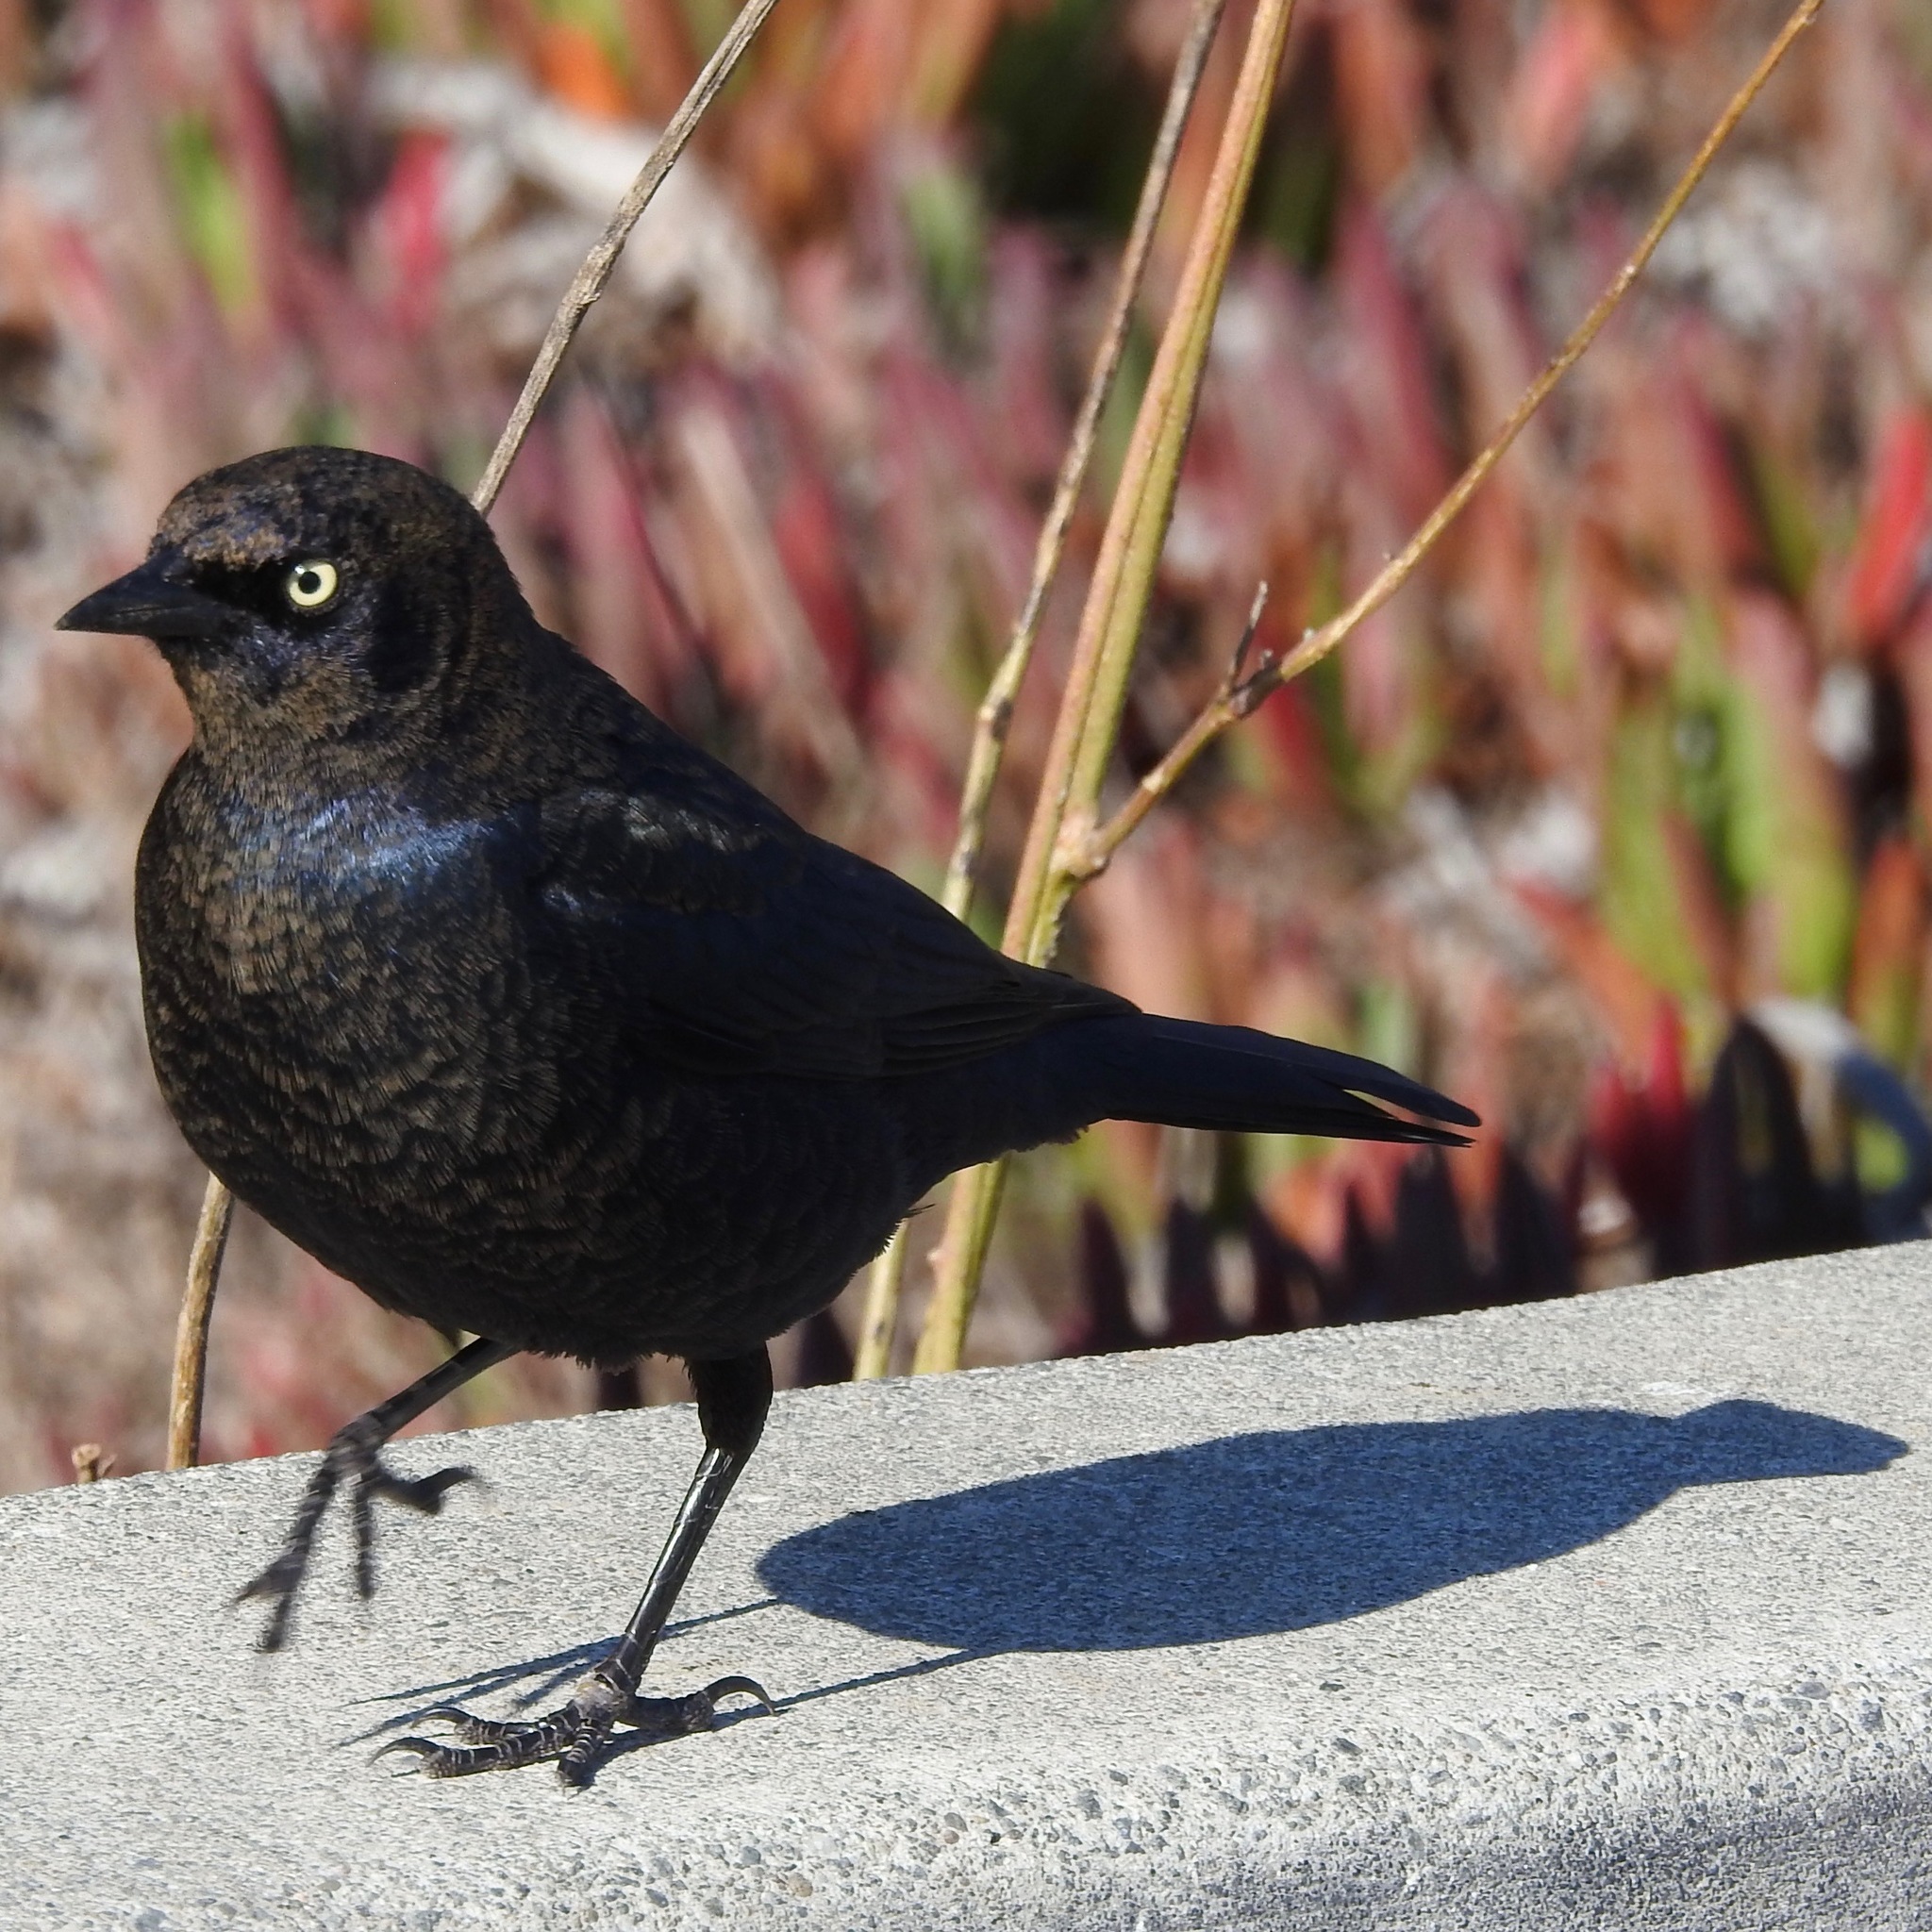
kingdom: Animalia
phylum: Chordata
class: Aves
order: Passeriformes
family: Icteridae
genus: Euphagus
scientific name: Euphagus cyanocephalus
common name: Brewer's blackbird
